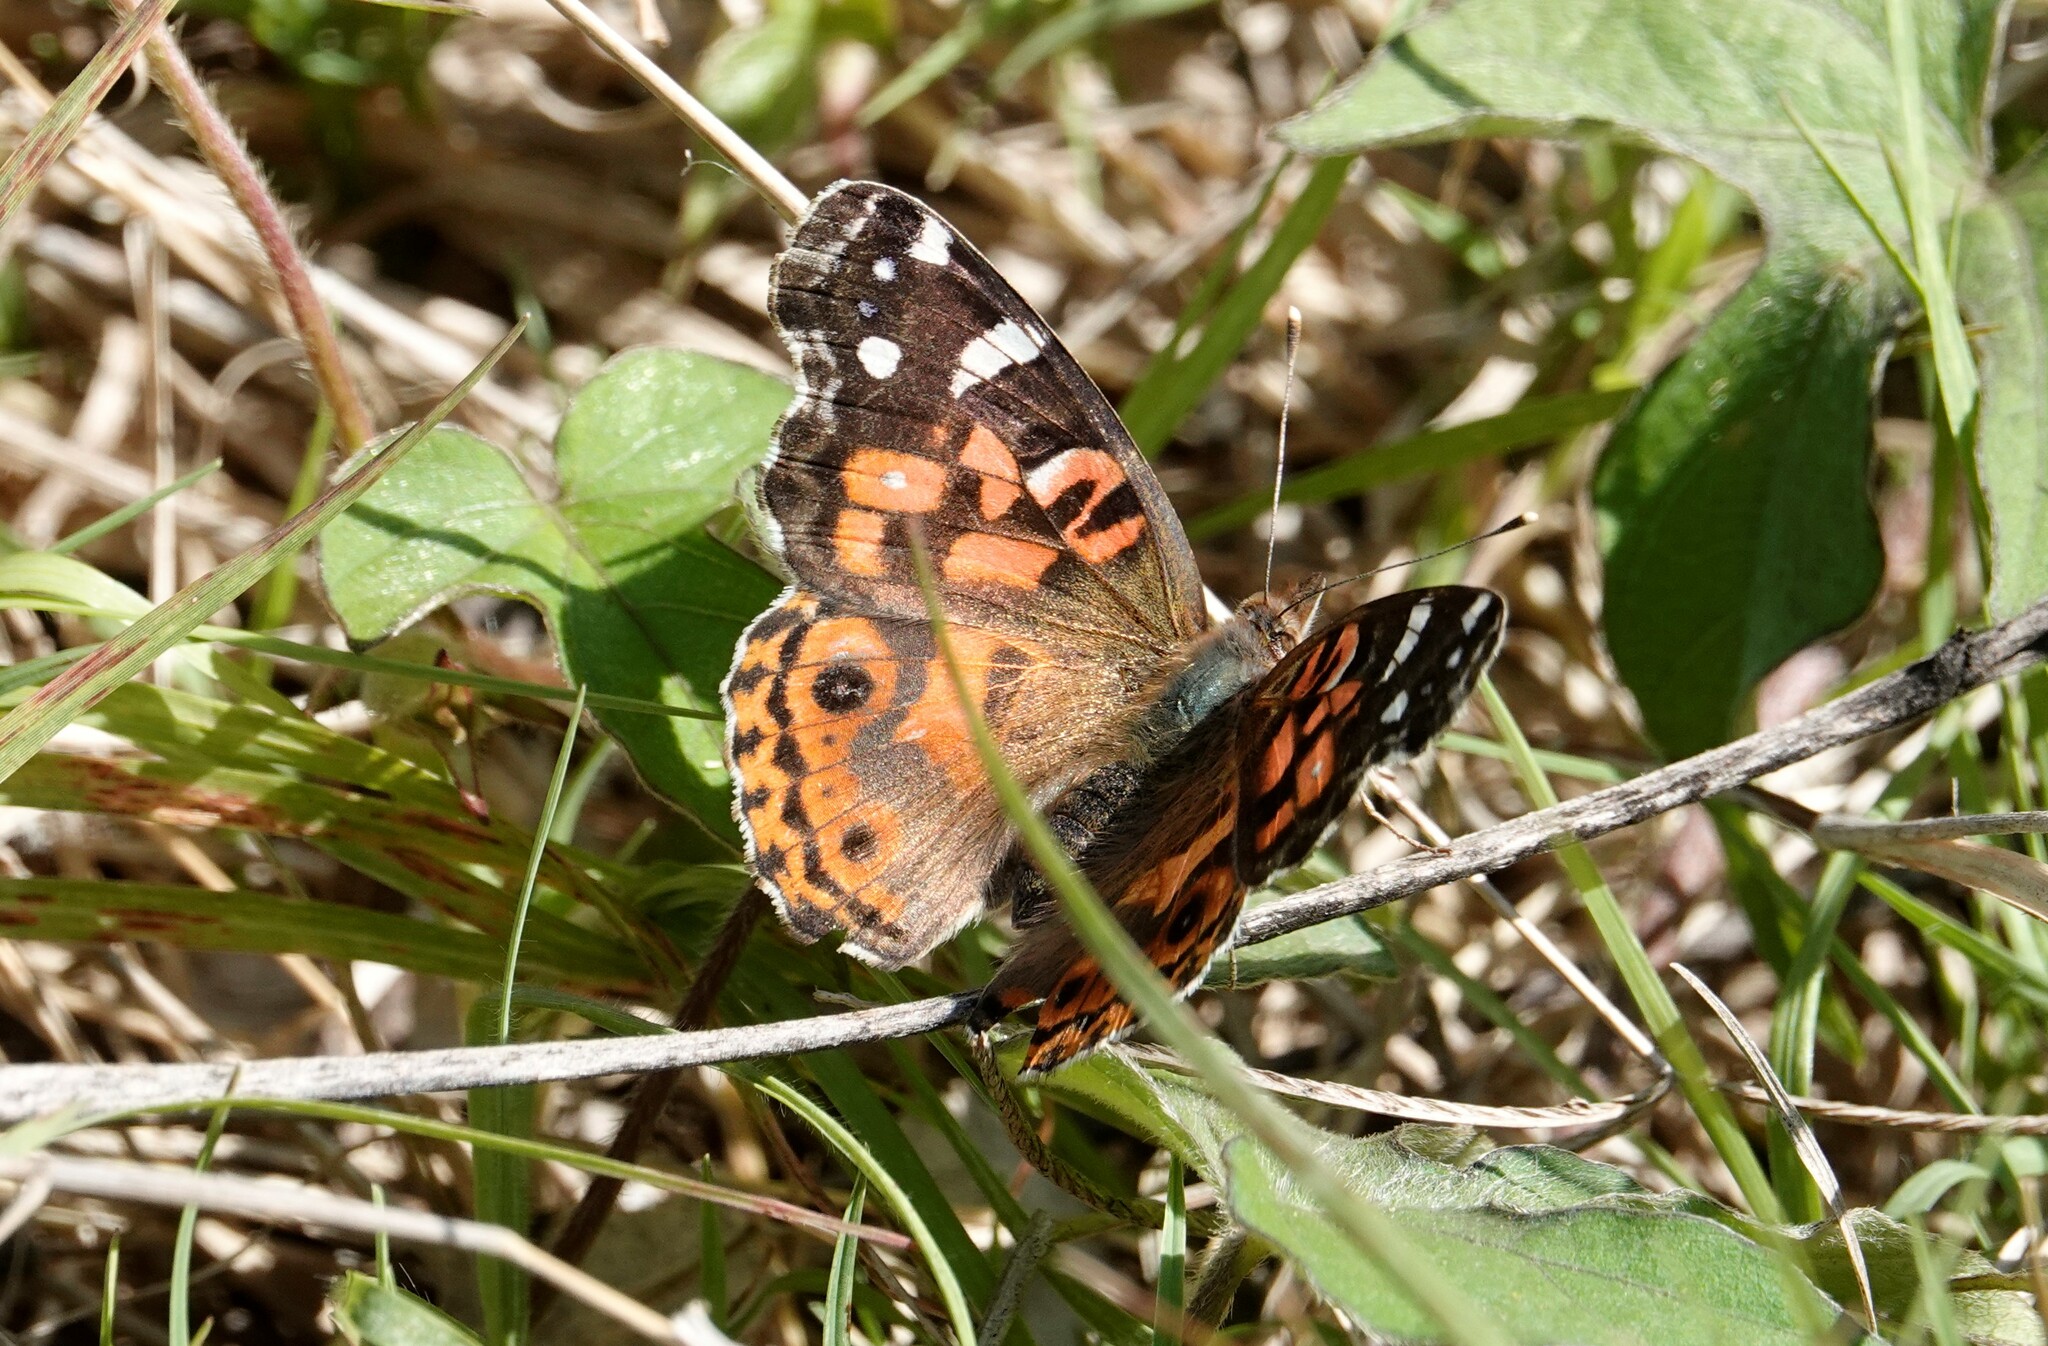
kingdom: Animalia
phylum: Arthropoda
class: Insecta
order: Lepidoptera
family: Nymphalidae
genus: Vanessa
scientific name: Vanessa braziliensis
